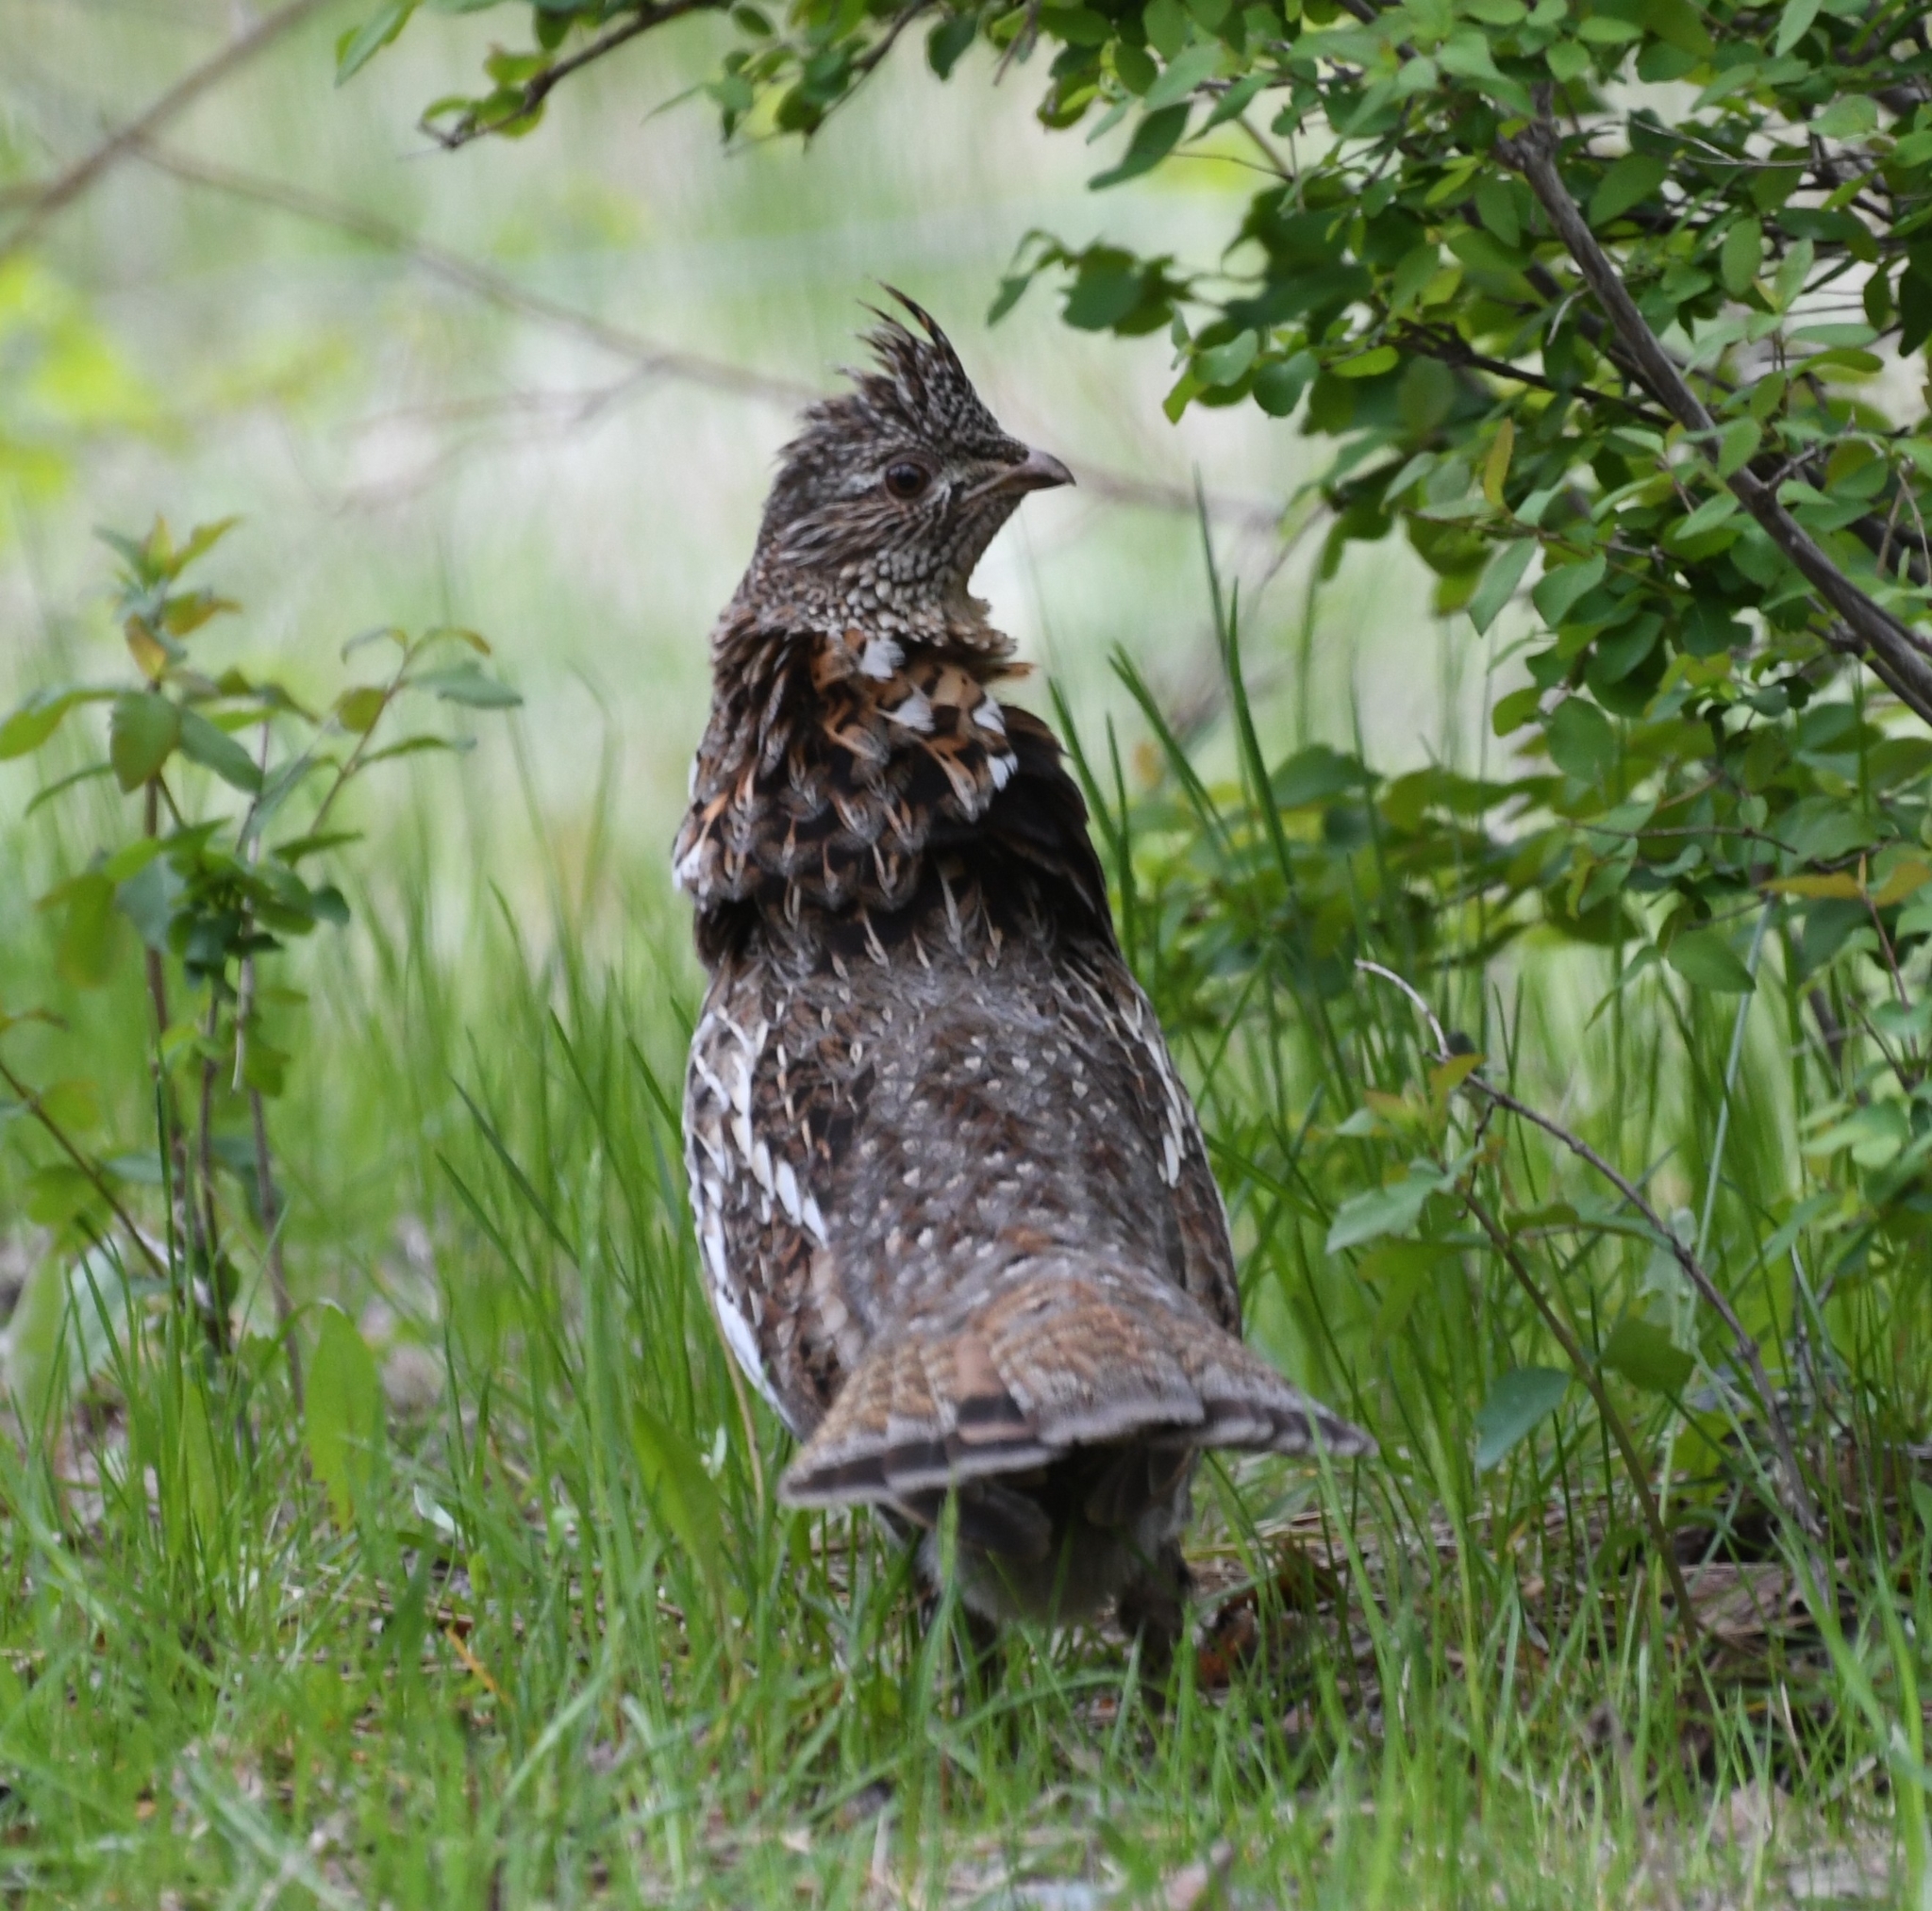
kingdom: Animalia
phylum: Chordata
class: Aves
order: Galliformes
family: Phasianidae
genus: Bonasa
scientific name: Bonasa umbellus
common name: Ruffed grouse
